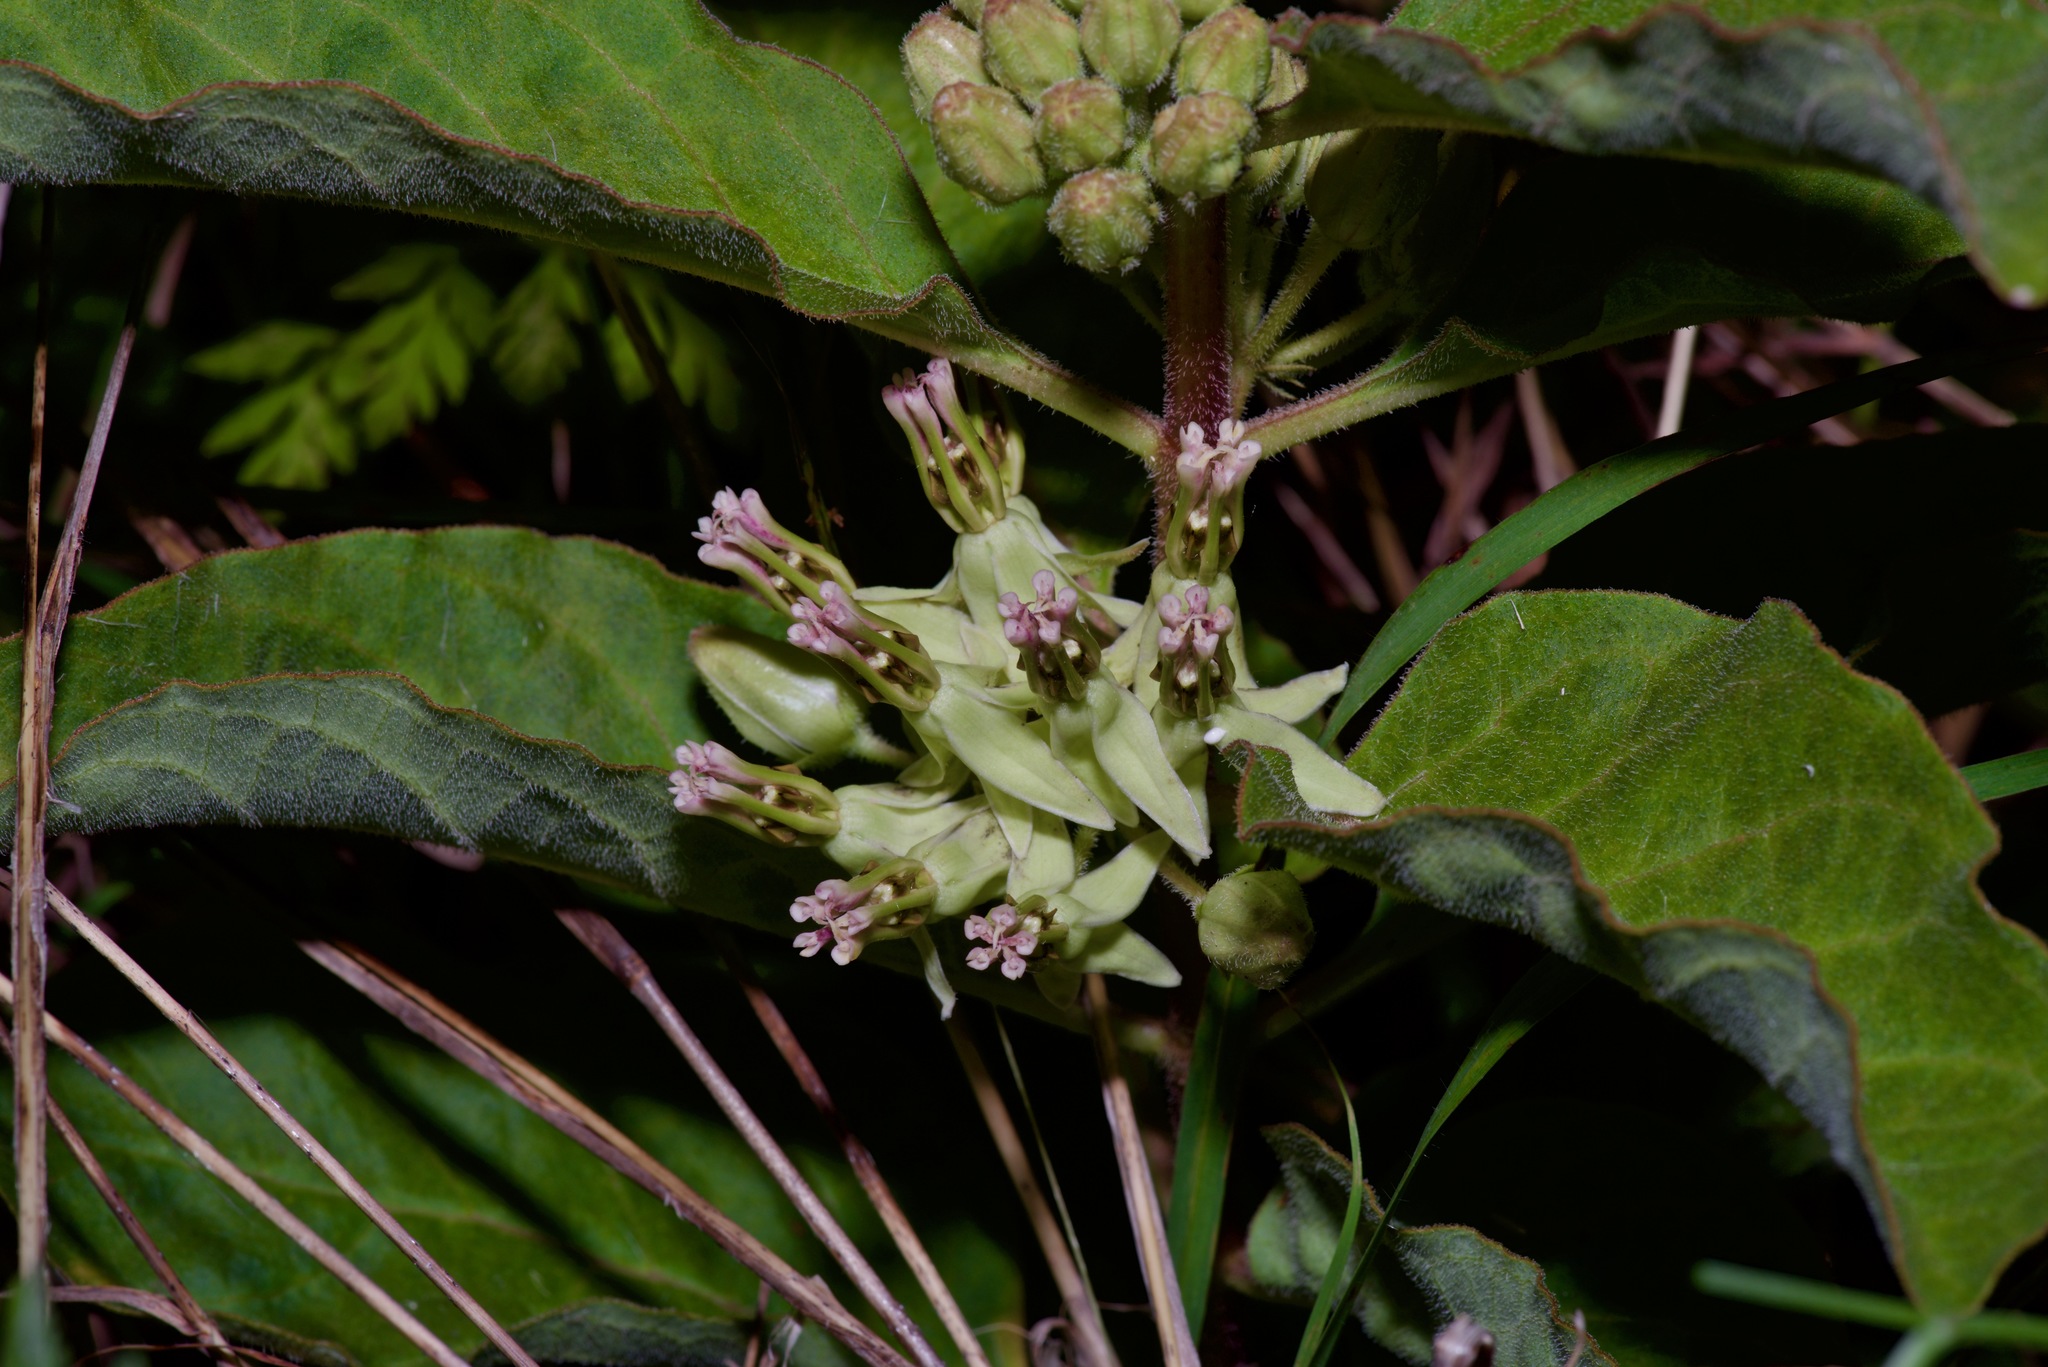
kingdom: Plantae
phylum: Tracheophyta
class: Magnoliopsida
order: Gentianales
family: Apocynaceae
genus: Asclepias
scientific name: Asclepias oenotheroides
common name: Zizotes milkweed
